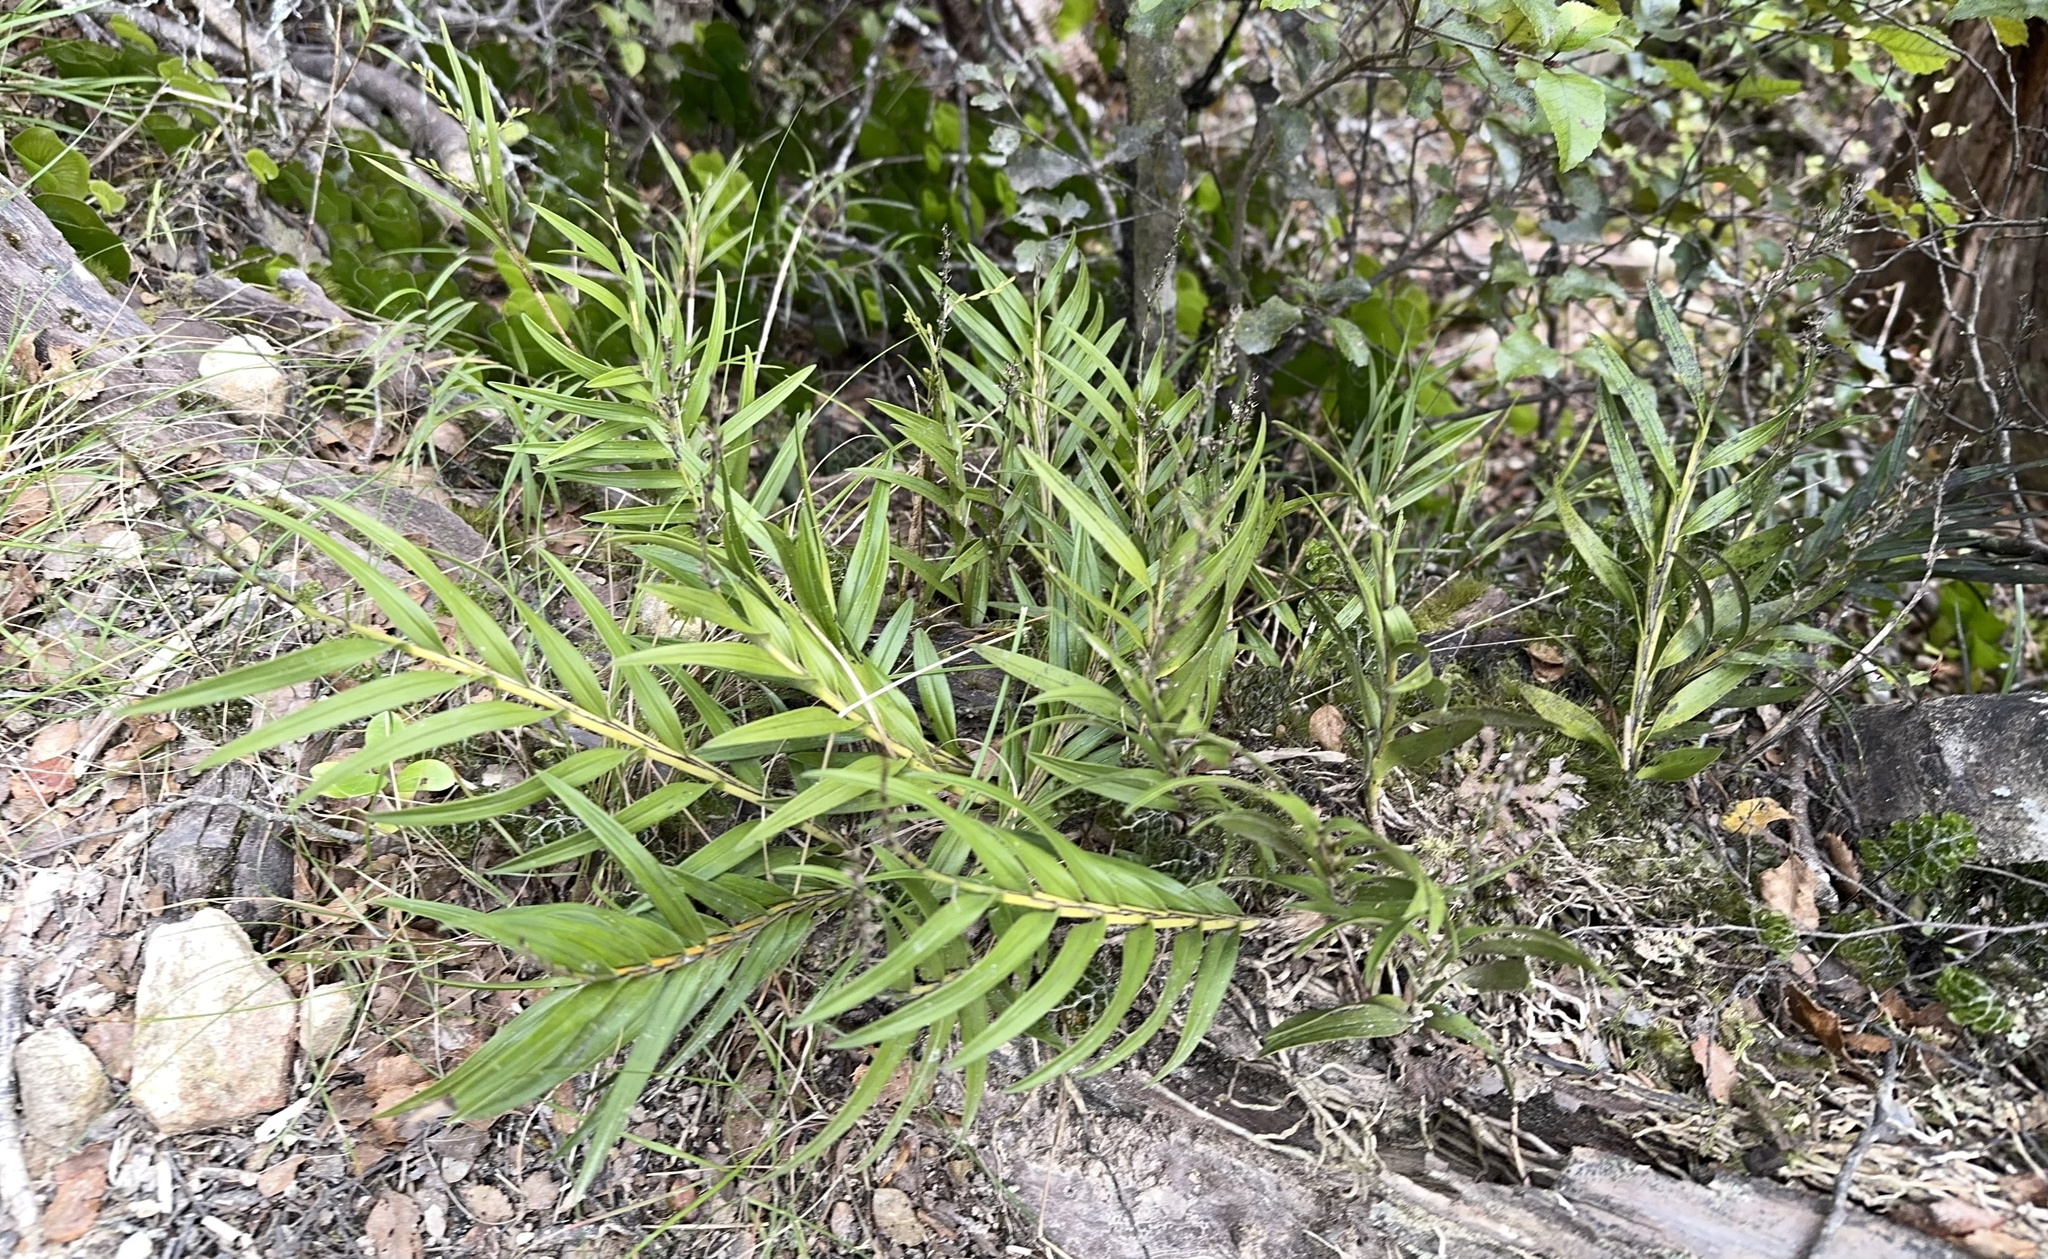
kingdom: Plantae
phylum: Tracheophyta
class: Liliopsida
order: Asparagales
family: Orchidaceae
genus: Earina
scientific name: Earina autumnalis
